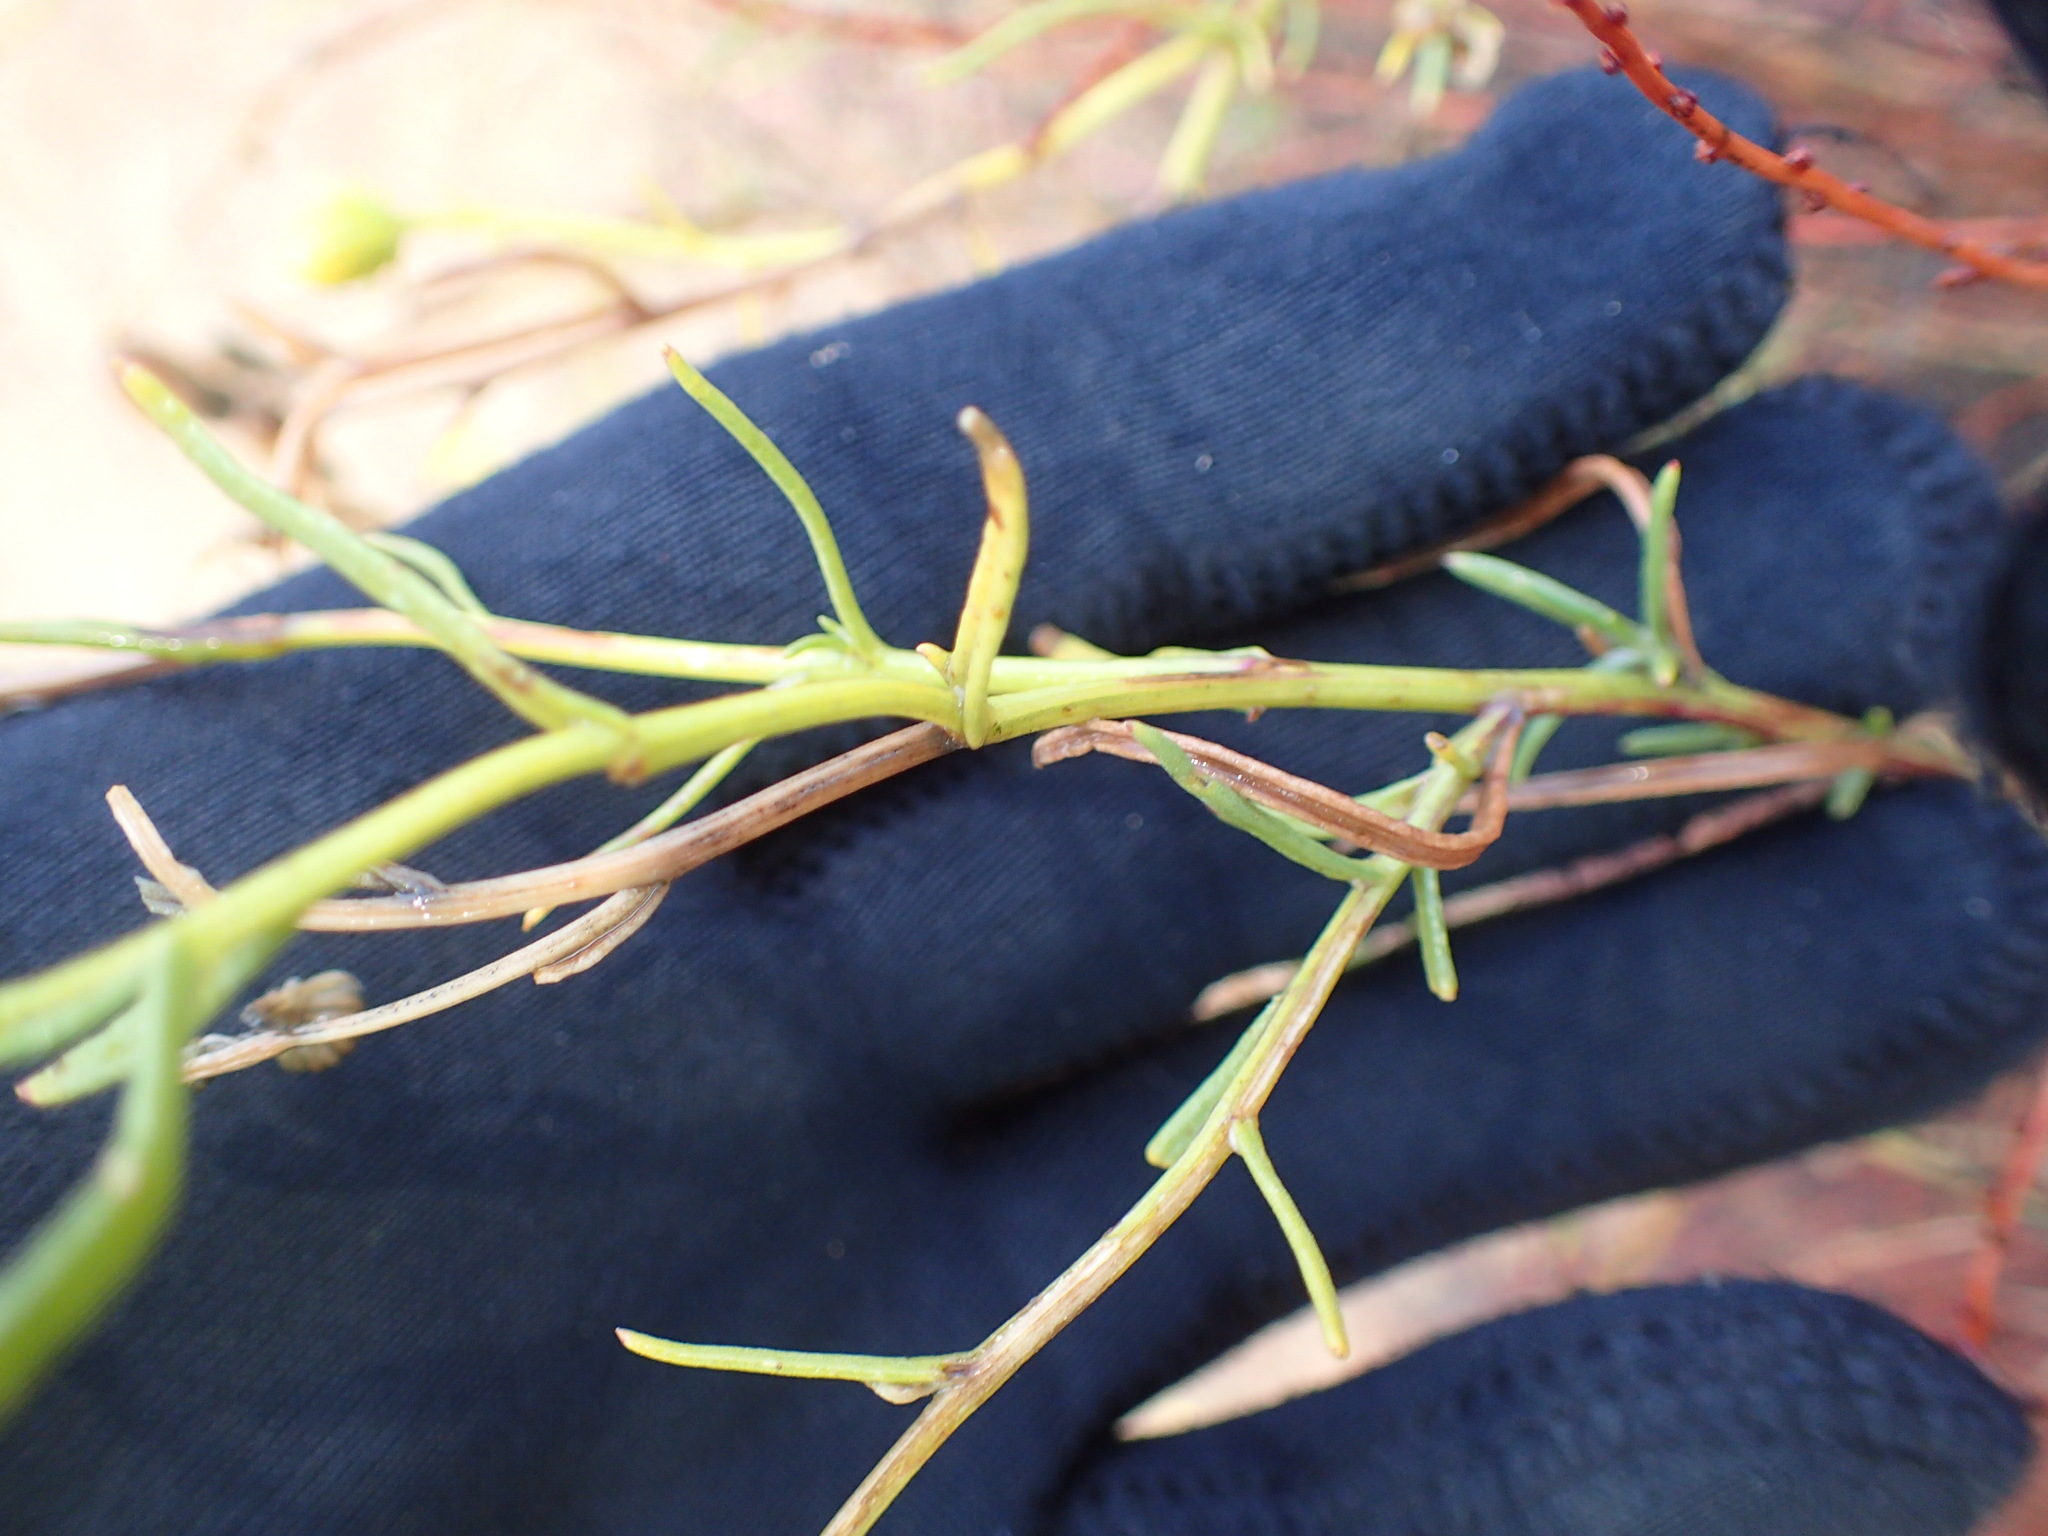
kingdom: Plantae
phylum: Tracheophyta
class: Magnoliopsida
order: Asterales
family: Asteraceae
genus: Senecio
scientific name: Senecio flaccidus
